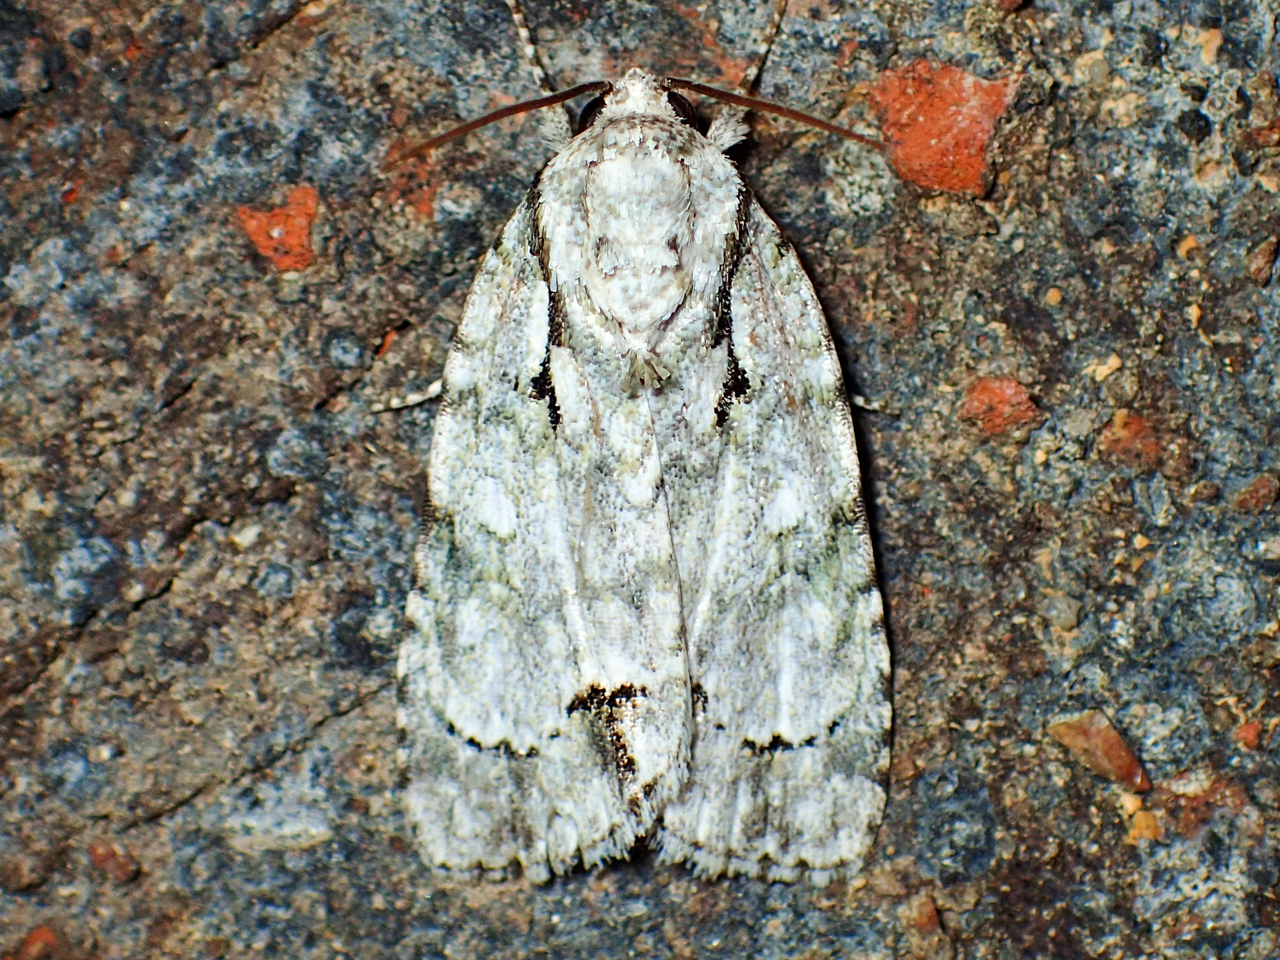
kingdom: Animalia
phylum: Arthropoda
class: Insecta
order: Lepidoptera
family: Noctuidae
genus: Acronicta
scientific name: Acronicta vinnula
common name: Delightful dagger
